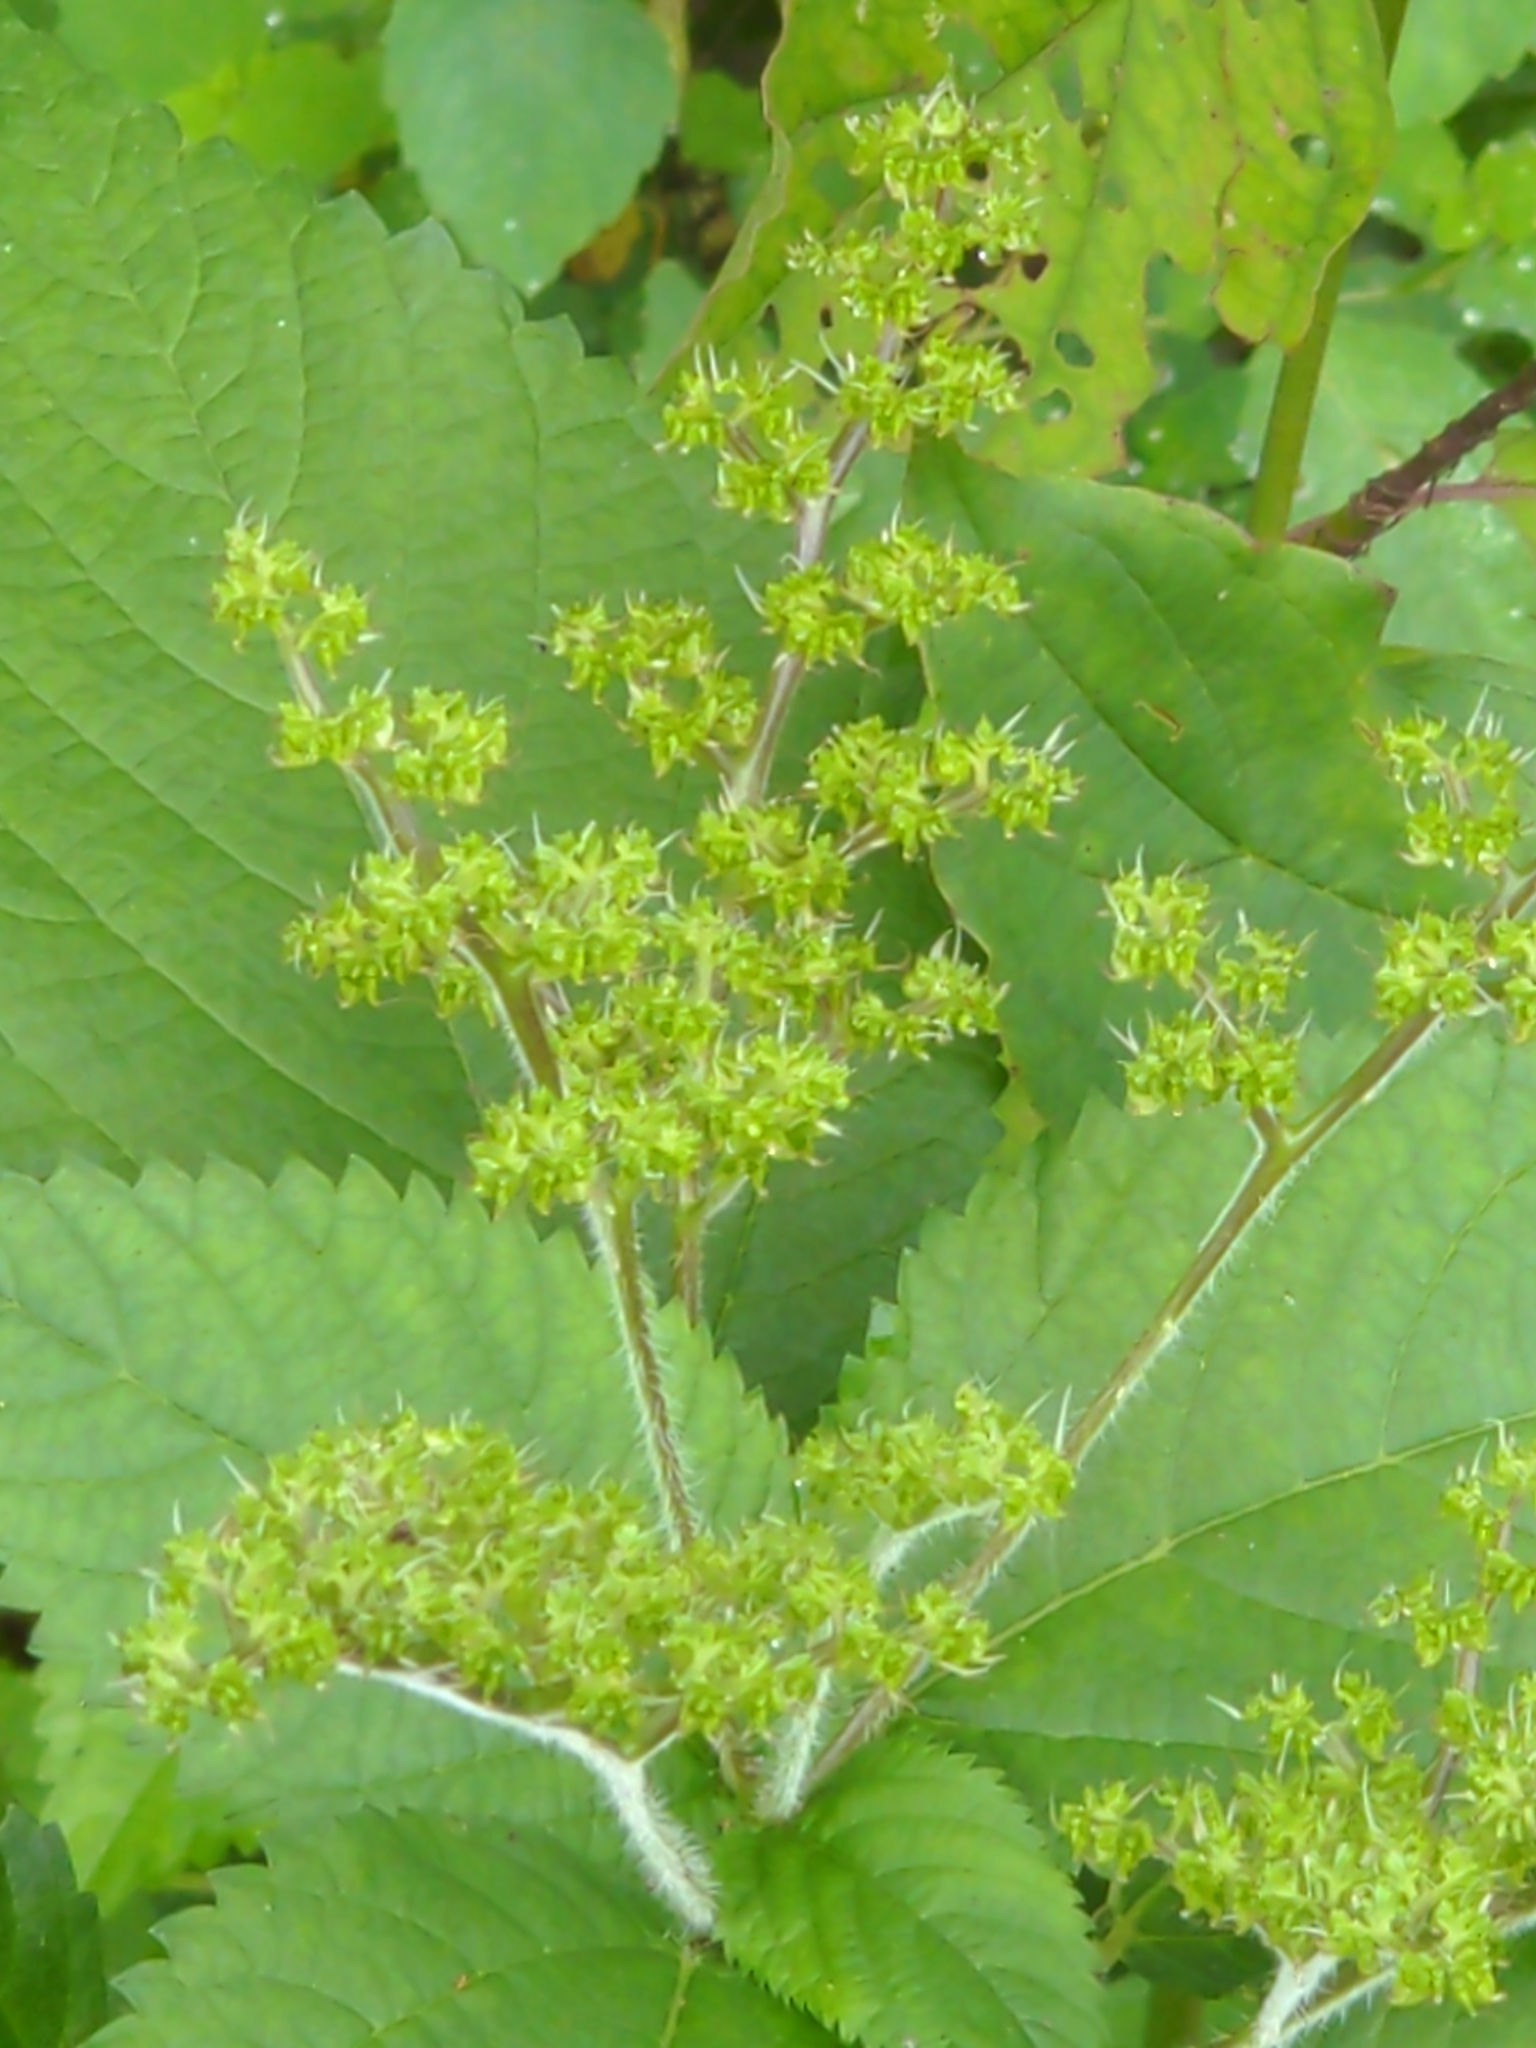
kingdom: Plantae
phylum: Tracheophyta
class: Magnoliopsida
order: Rosales
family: Urticaceae
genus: Laportea
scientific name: Laportea canadensis
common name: Canada nettle
